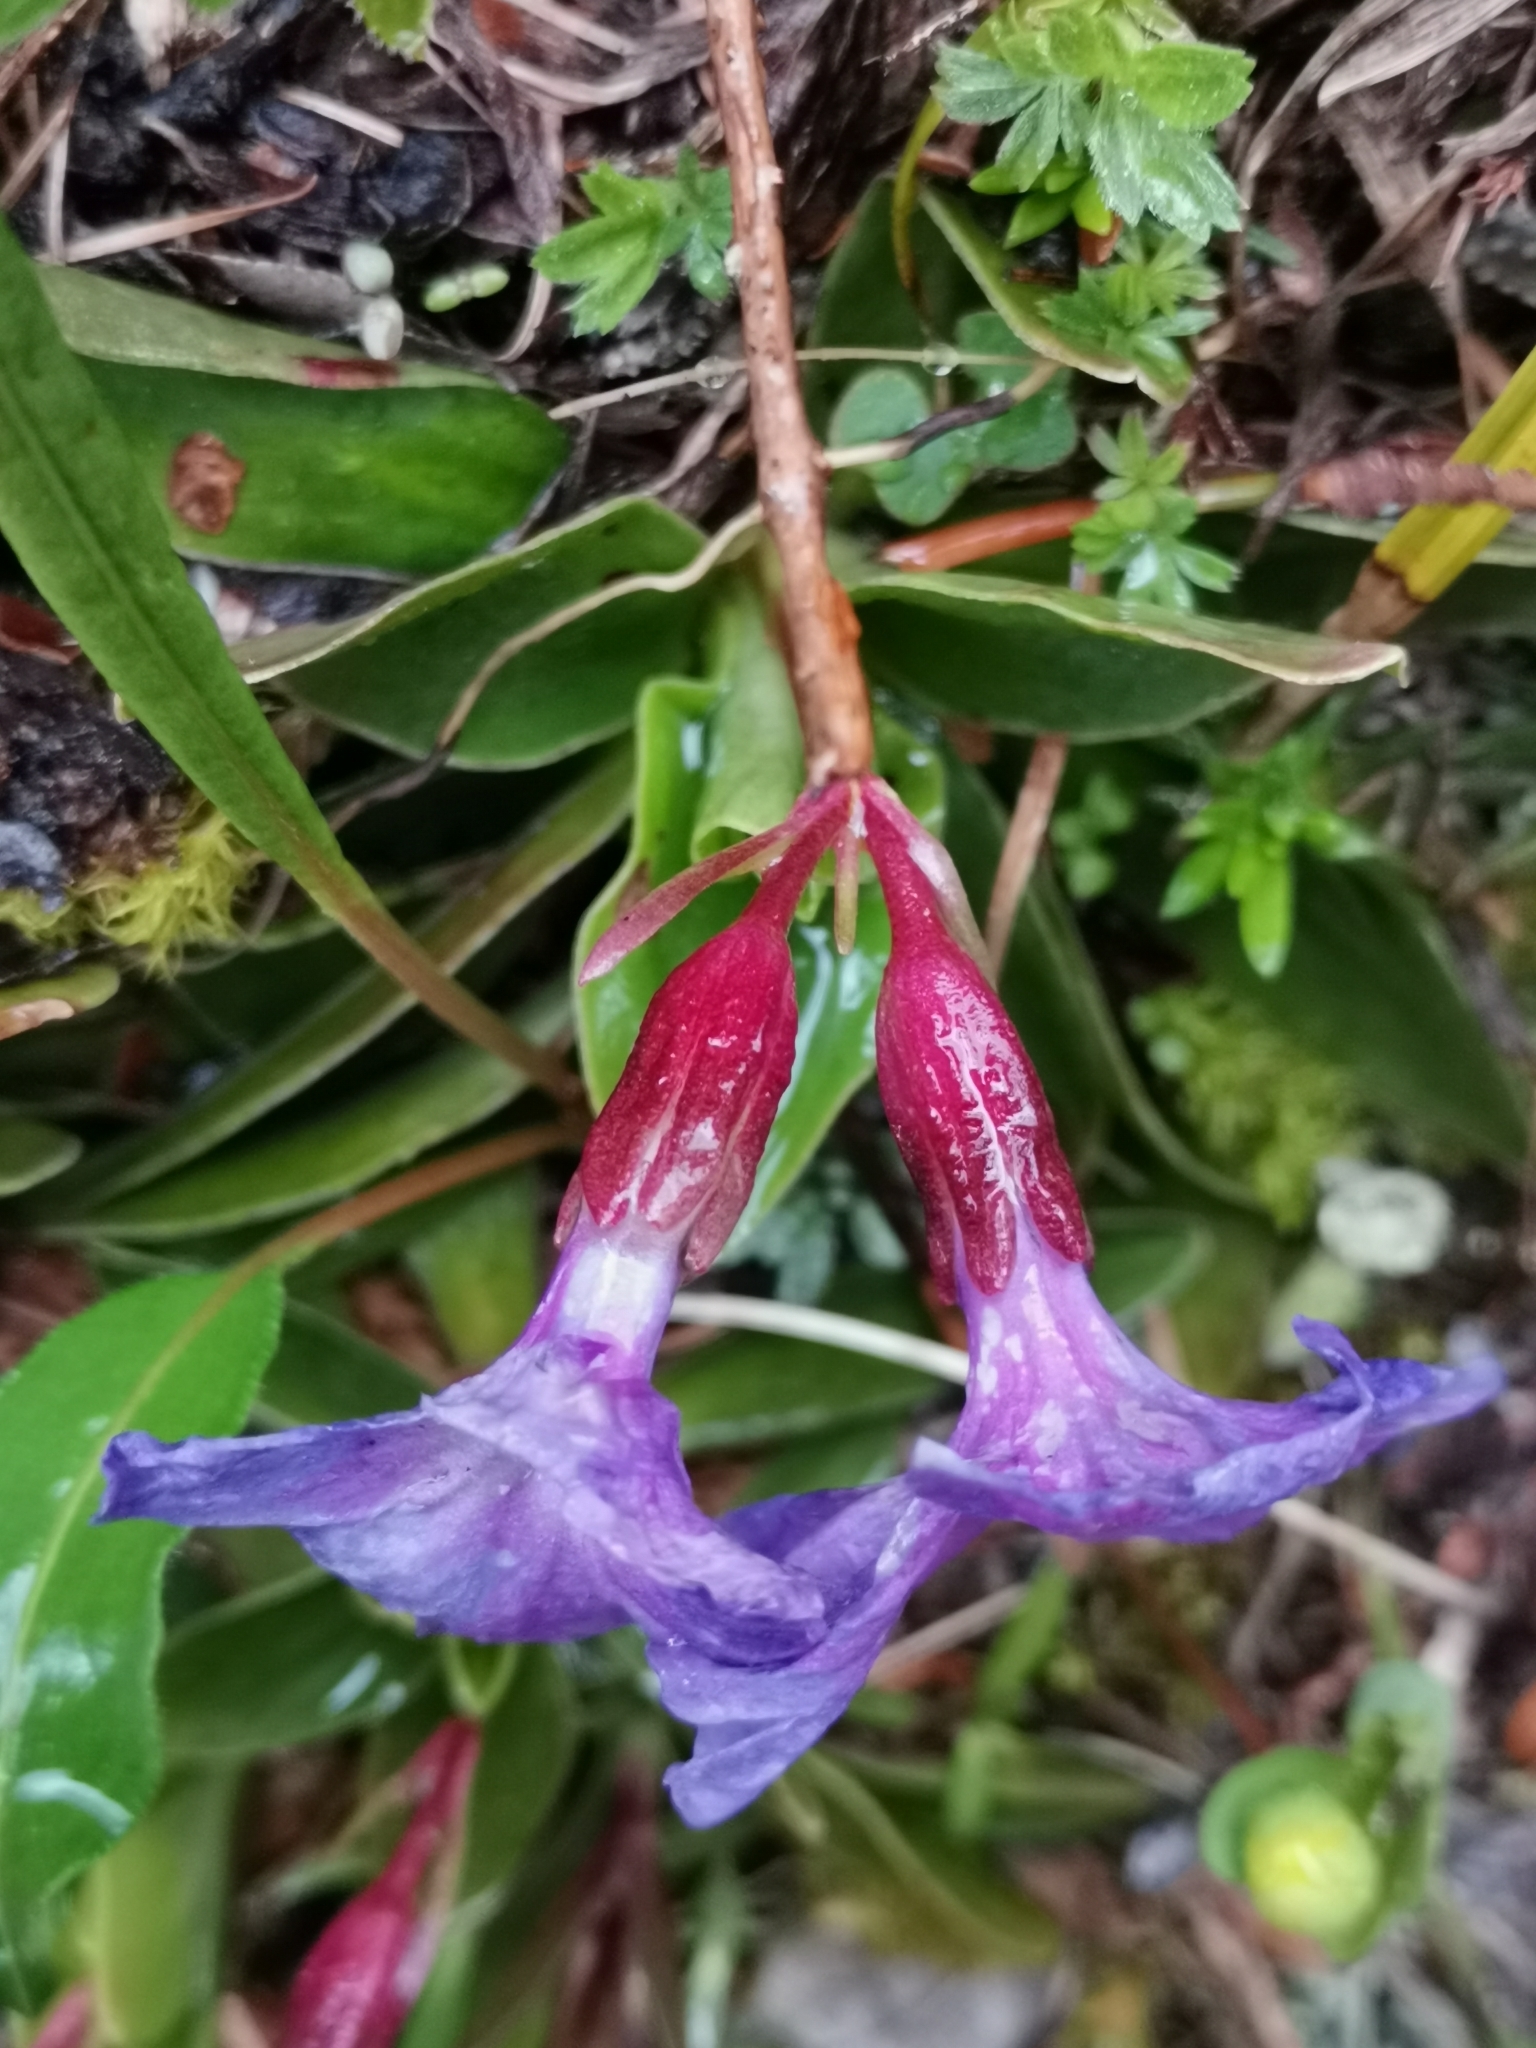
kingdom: Plantae
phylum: Tracheophyta
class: Magnoliopsida
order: Ericales
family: Primulaceae
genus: Primula
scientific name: Primula wulfeniana
